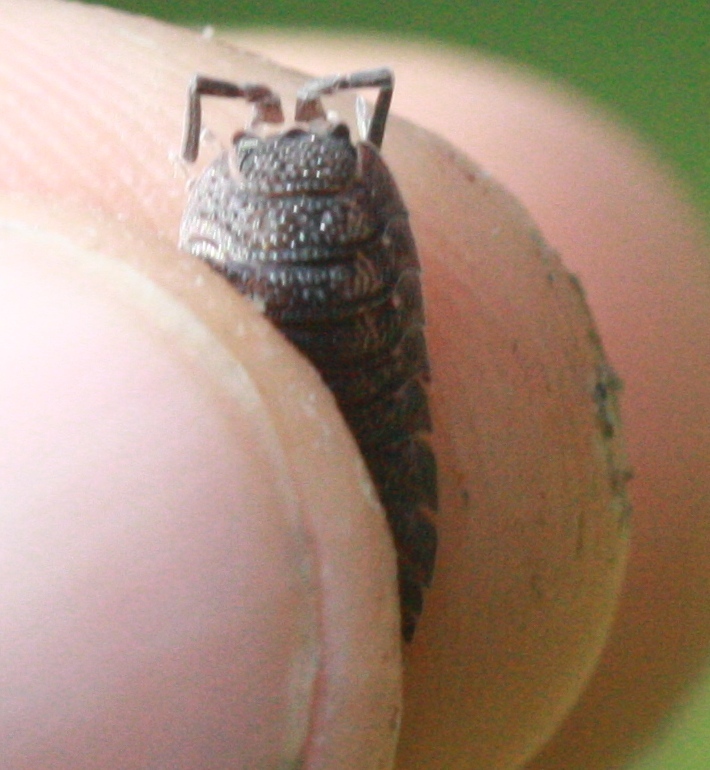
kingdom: Animalia
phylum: Arthropoda
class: Malacostraca
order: Isopoda
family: Porcellionidae
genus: Porcellio
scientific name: Porcellio scaber
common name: Common rough woodlouse
